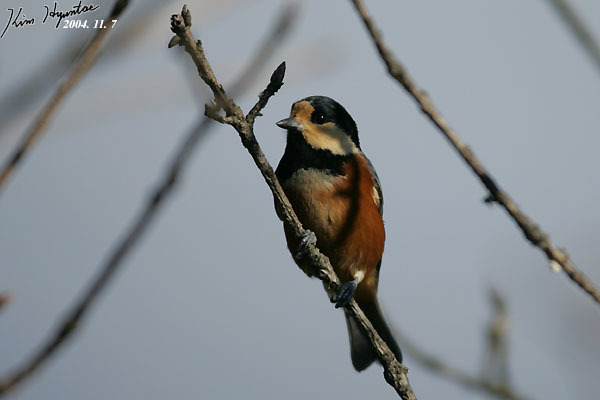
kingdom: Animalia
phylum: Chordata
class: Aves
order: Passeriformes
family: Paridae
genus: Poecile
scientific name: Poecile varius
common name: Varied tit
